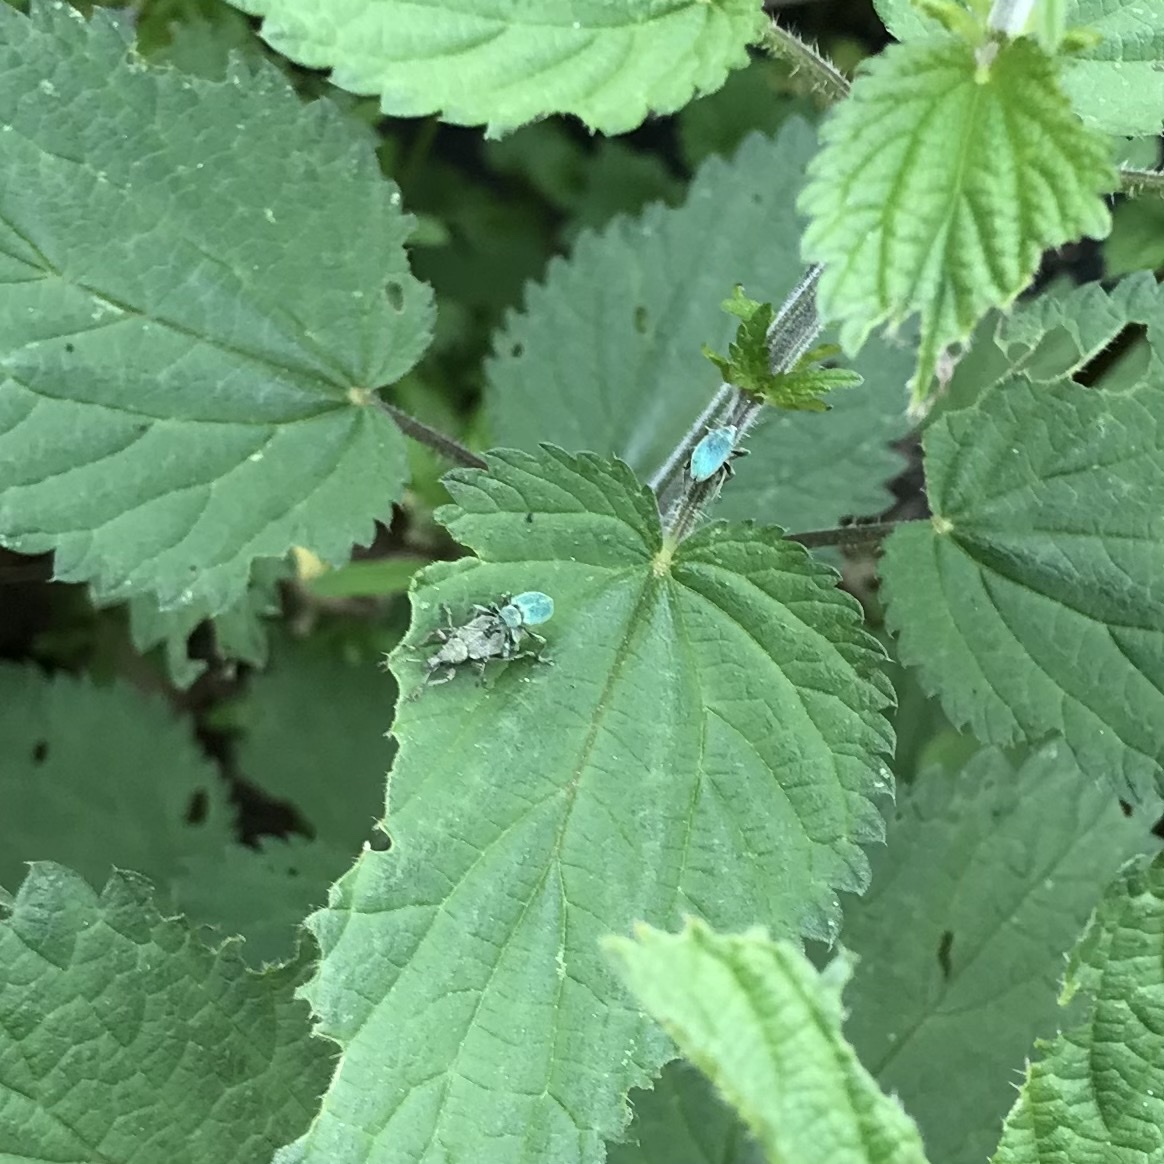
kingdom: Animalia
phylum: Arthropoda
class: Insecta
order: Coleoptera
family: Curculionidae
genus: Phyllobius
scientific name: Phyllobius pomaceus
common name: Green nettle weevil
